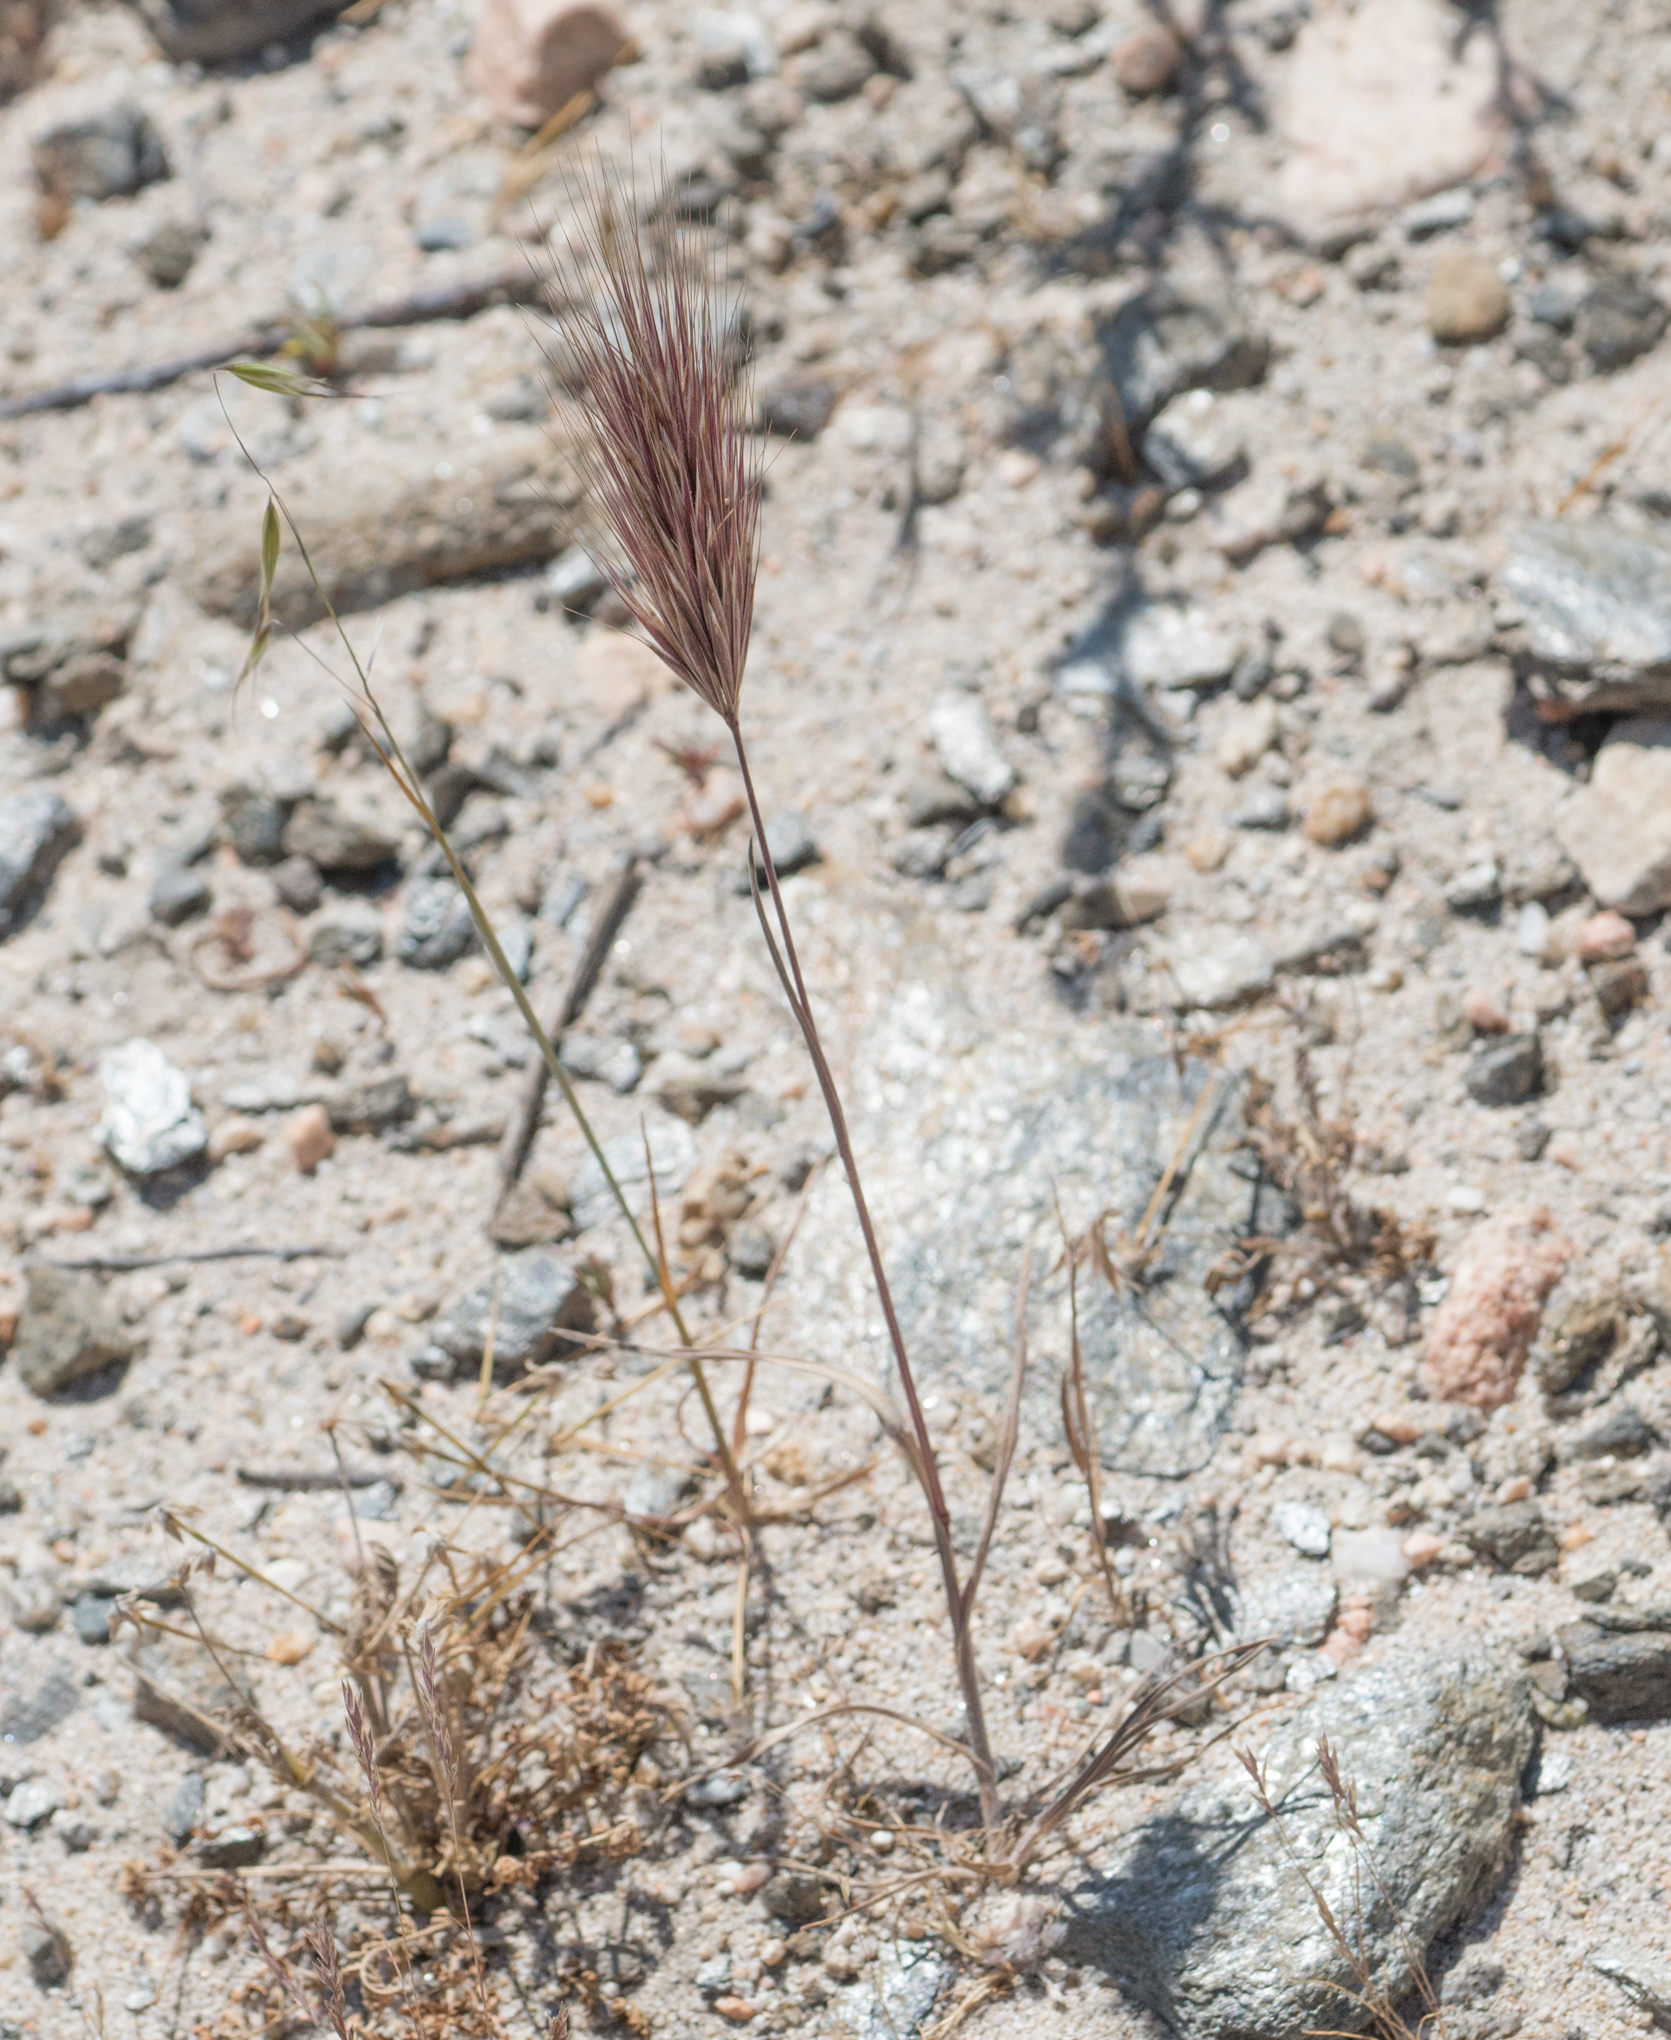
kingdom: Plantae
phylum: Tracheophyta
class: Liliopsida
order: Poales
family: Poaceae
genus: Bromus
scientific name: Bromus rubens
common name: Red brome
